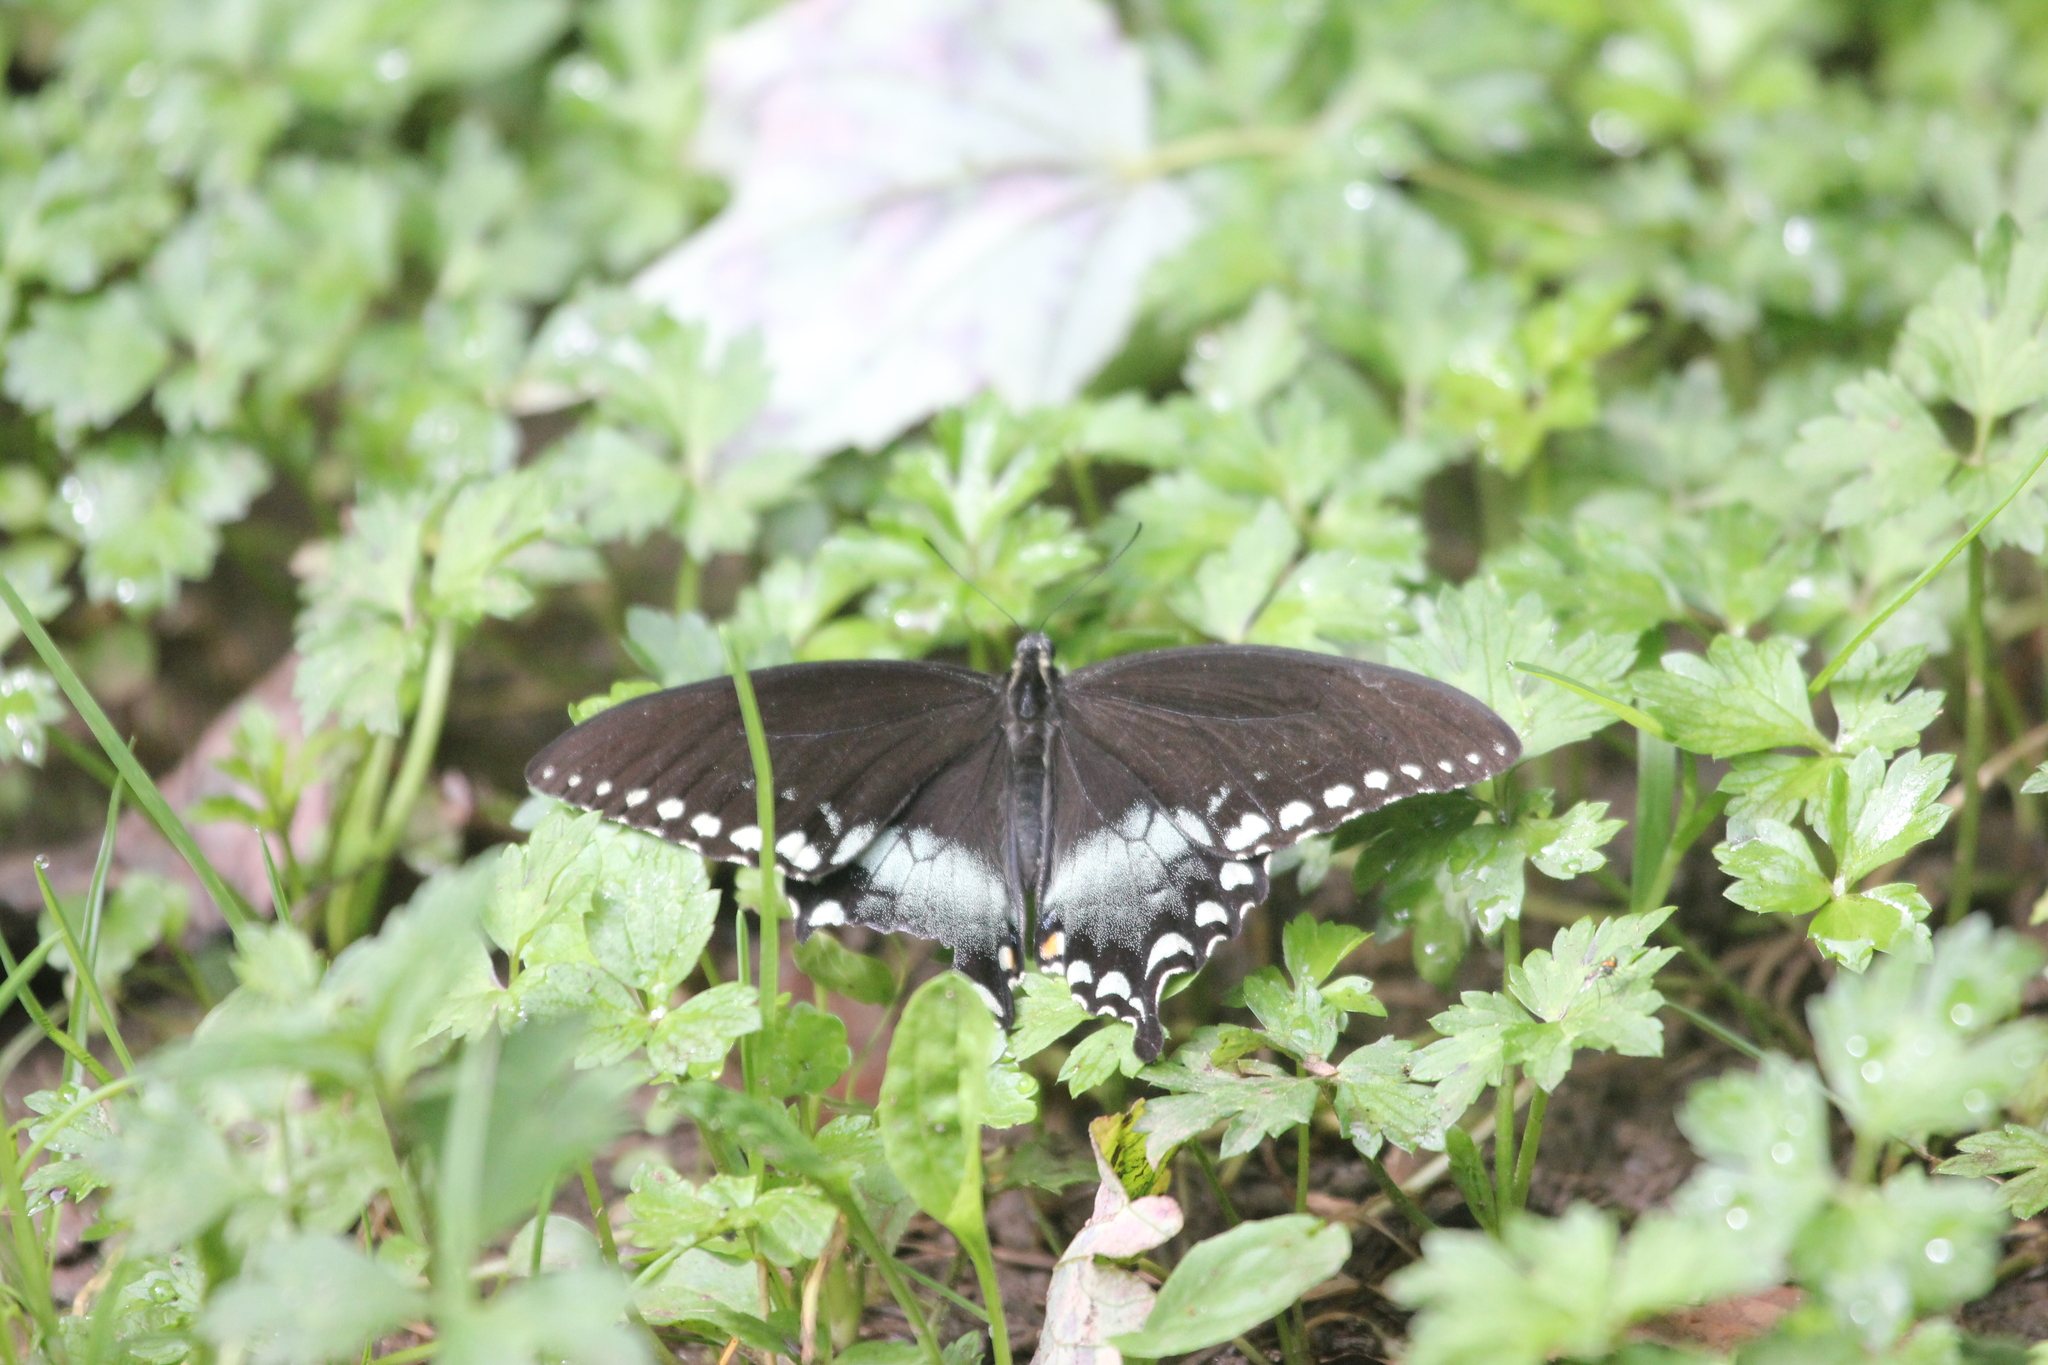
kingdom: Animalia
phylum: Arthropoda
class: Insecta
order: Lepidoptera
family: Papilionidae
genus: Papilio
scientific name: Papilio troilus
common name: Spicebush swallowtail
